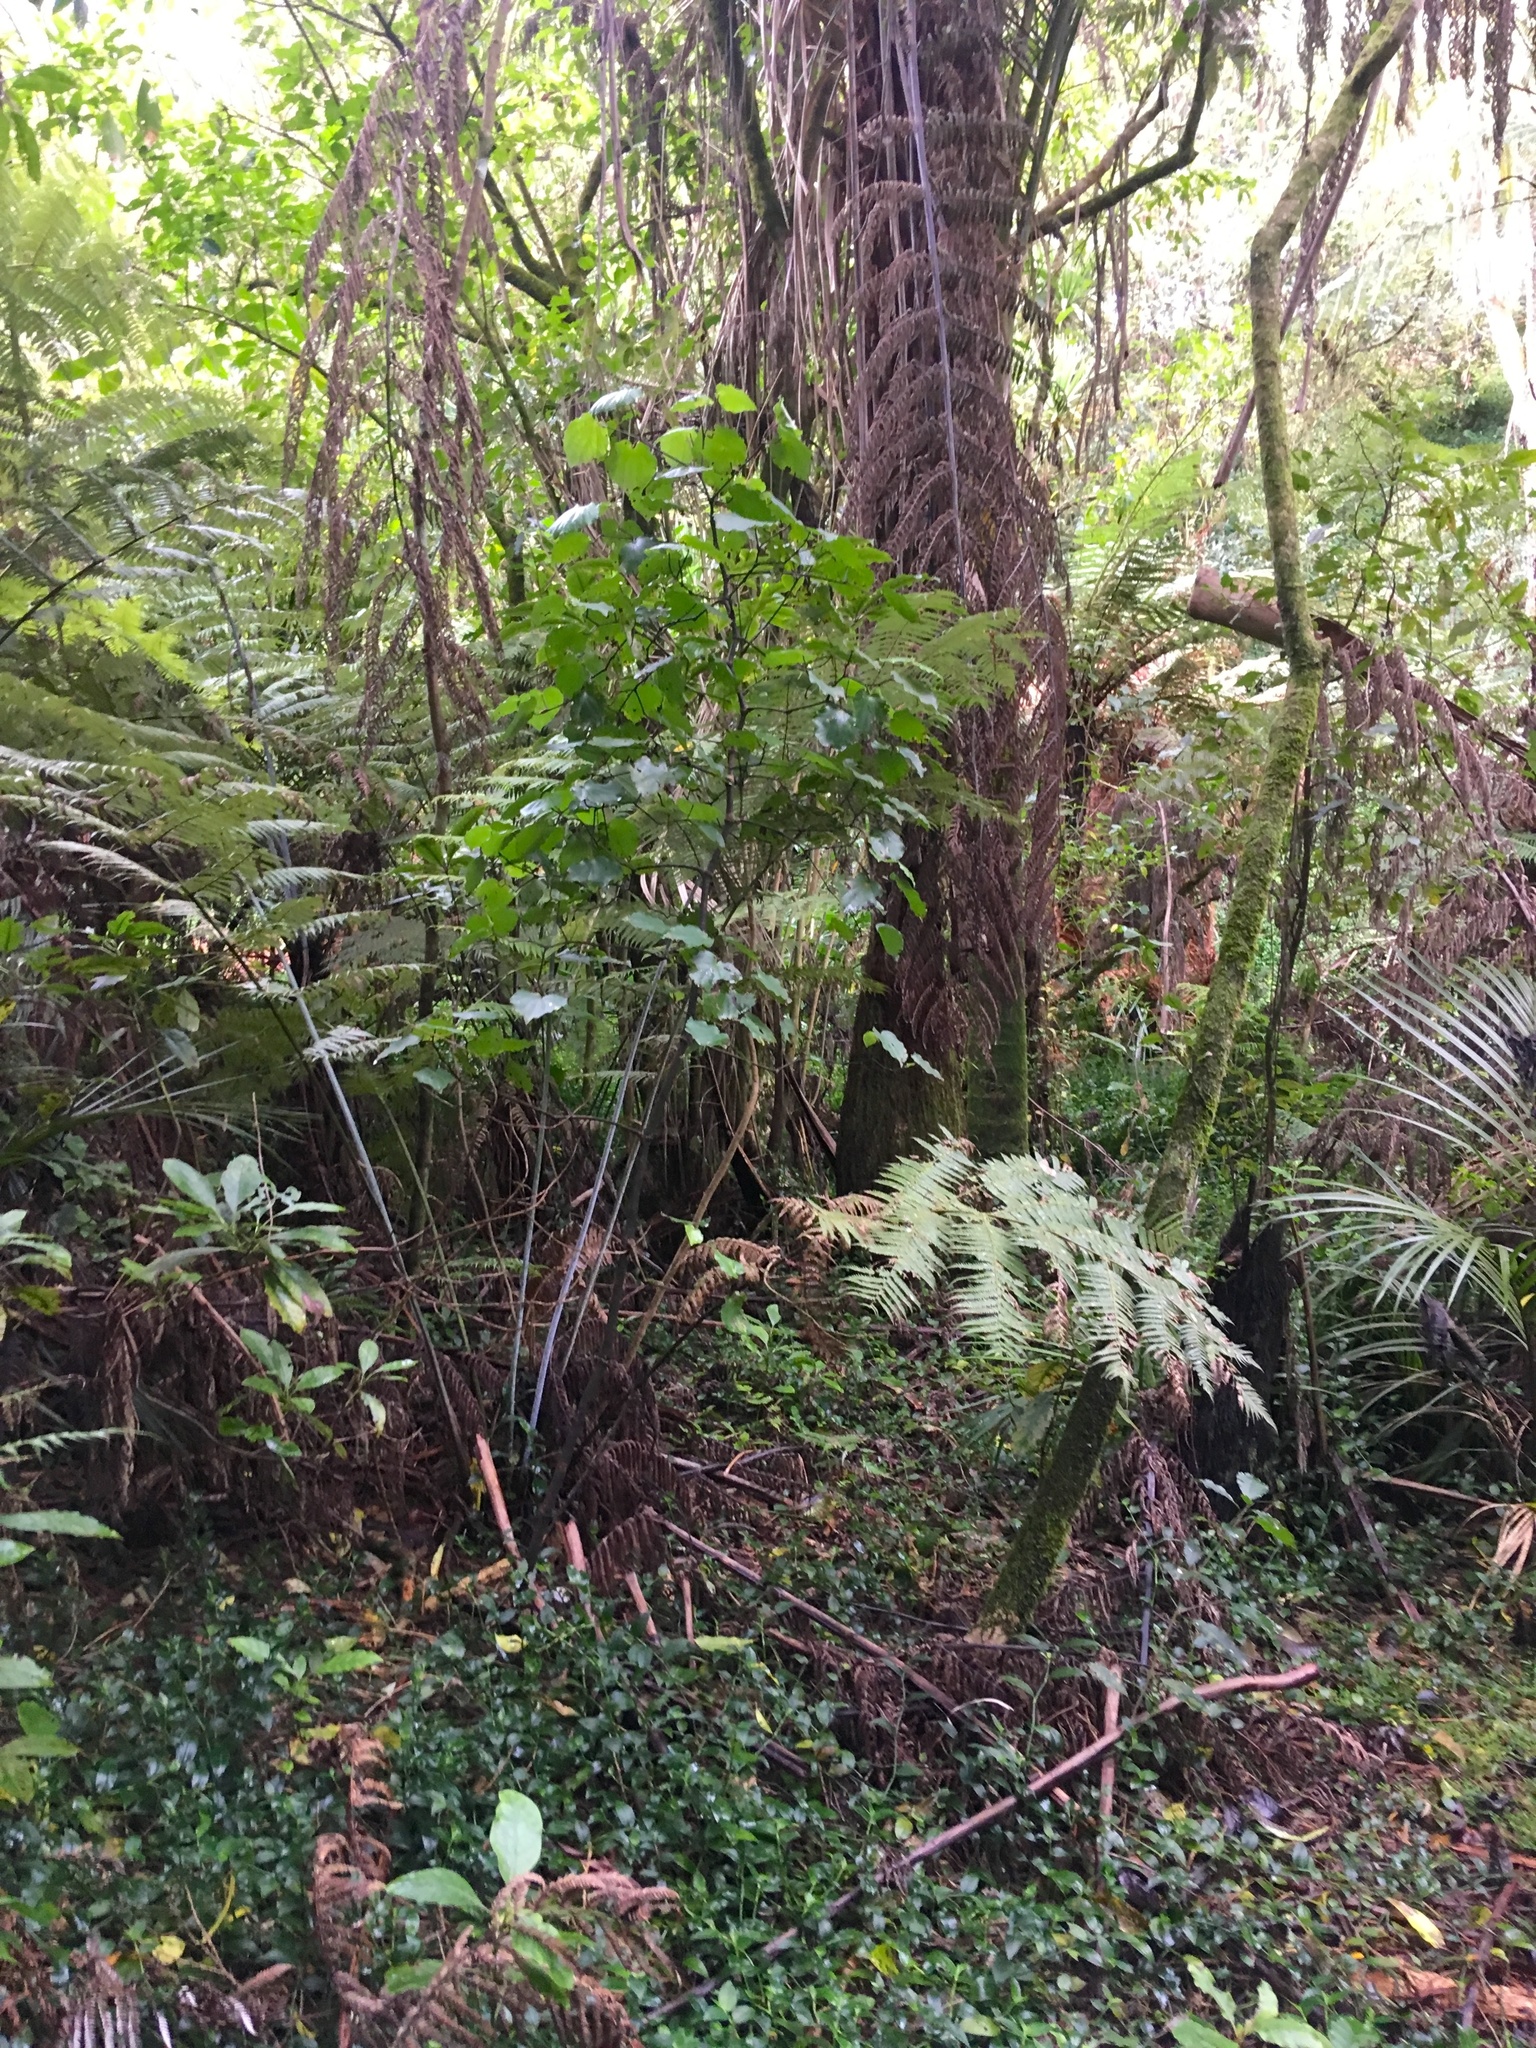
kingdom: Plantae
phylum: Tracheophyta
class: Magnoliopsida
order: Piperales
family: Piperaceae
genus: Macropiper
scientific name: Macropiper excelsum
